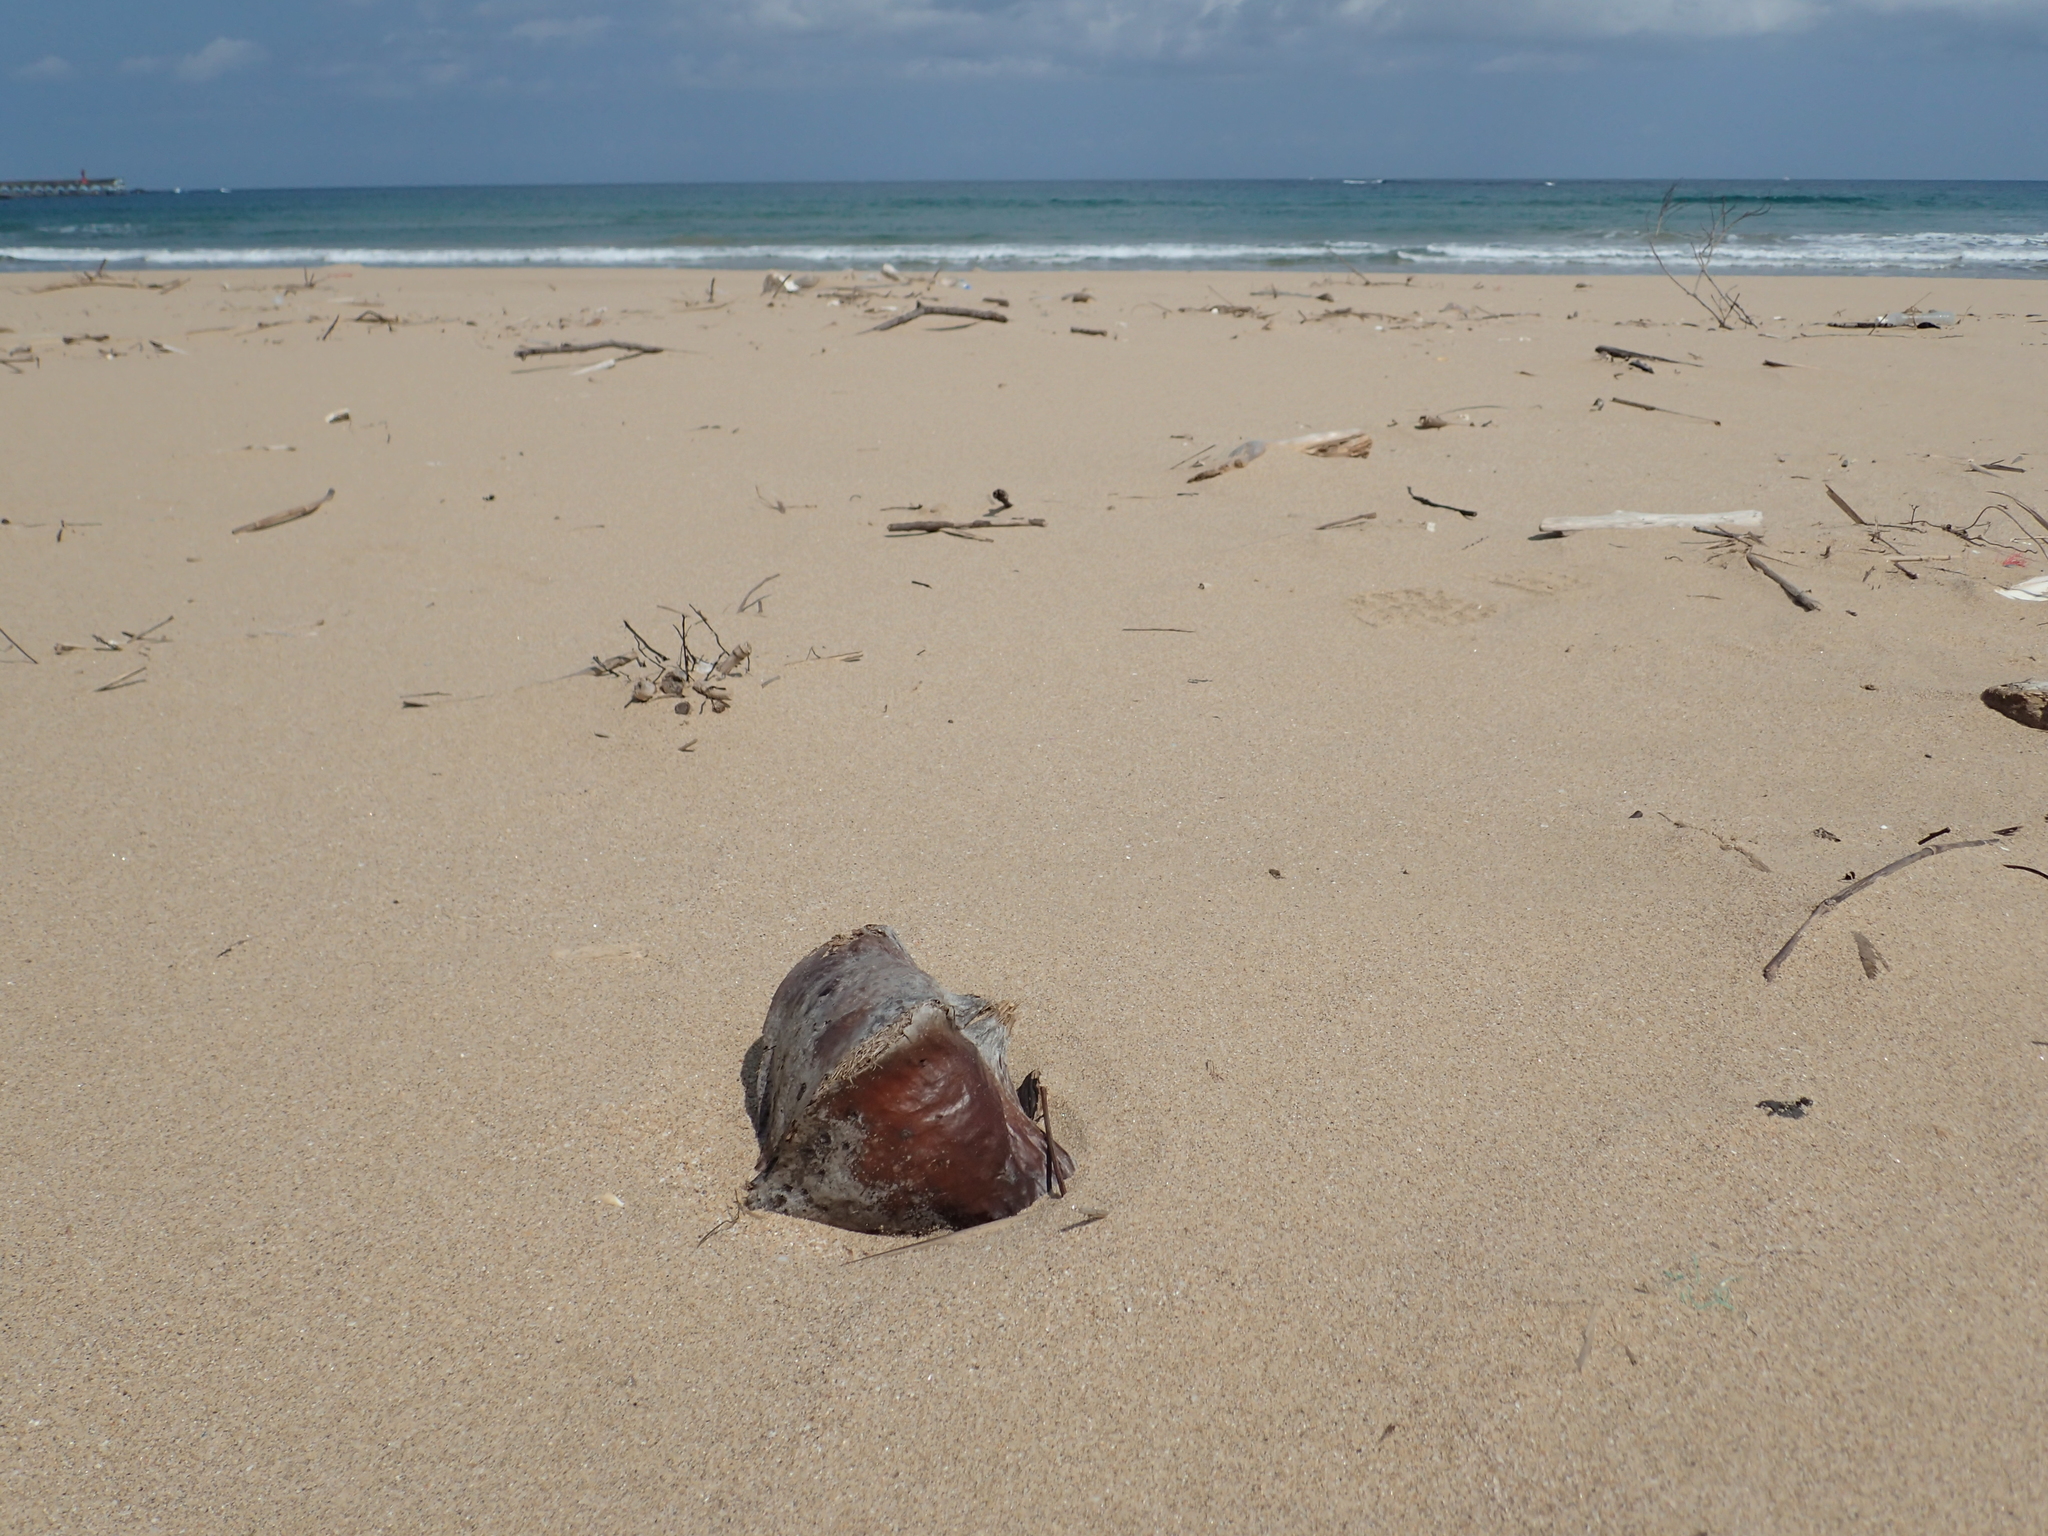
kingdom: Plantae
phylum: Tracheophyta
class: Magnoliopsida
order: Ericales
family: Lecythidaceae
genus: Barringtonia
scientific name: Barringtonia asiatica
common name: Mango-pine
